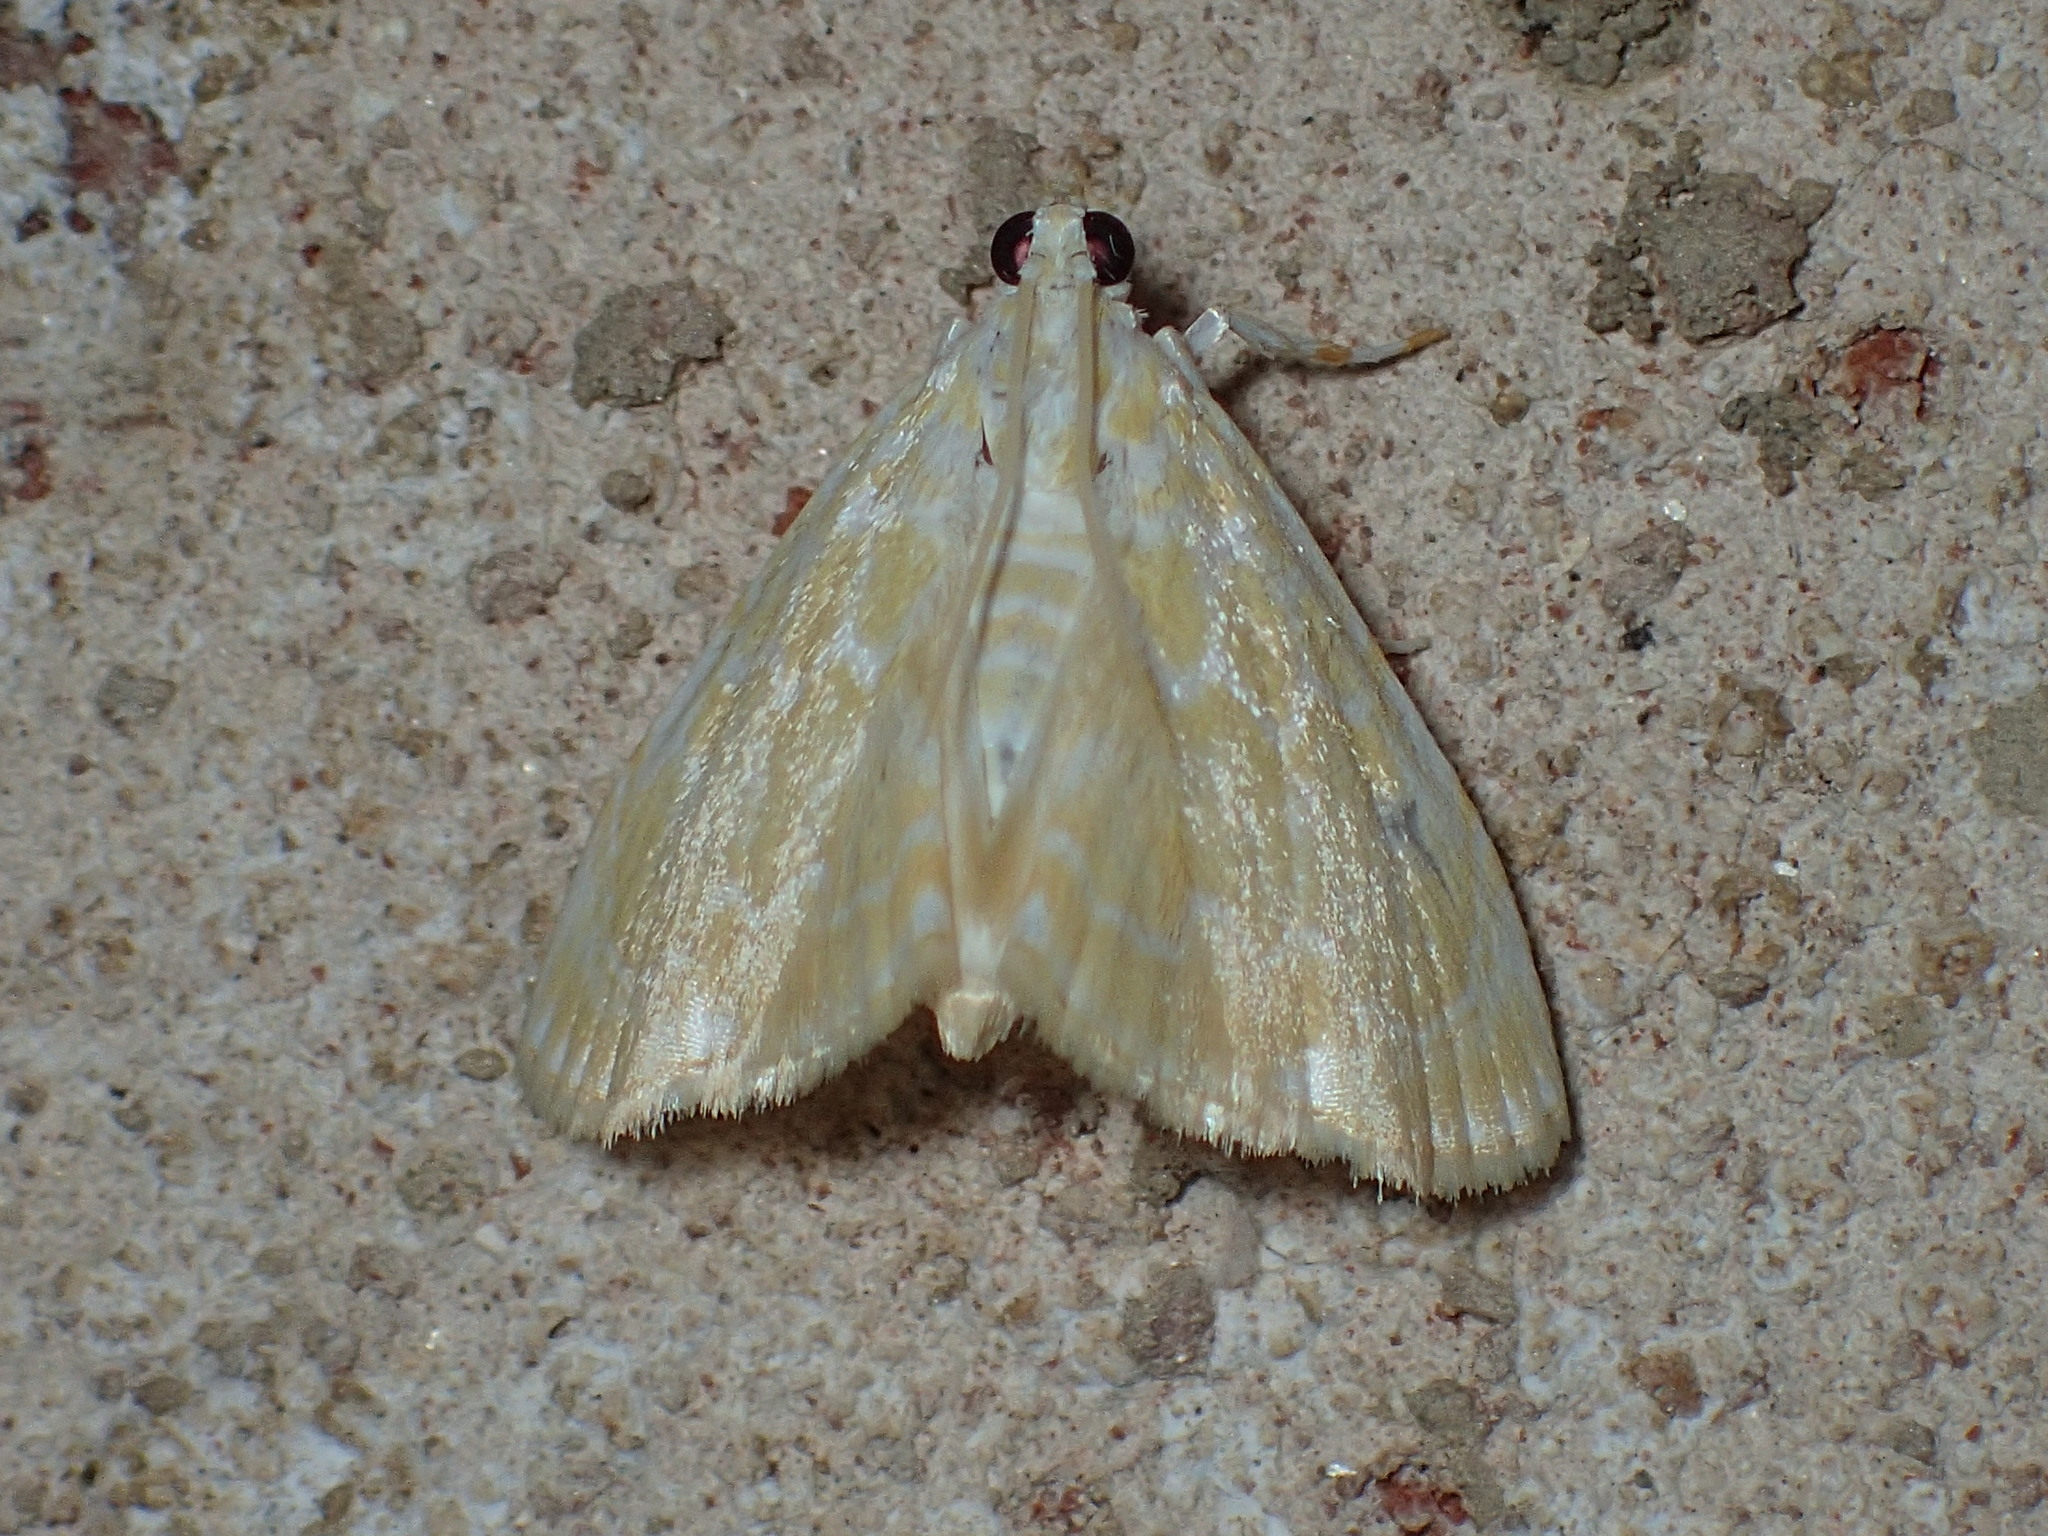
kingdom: Animalia
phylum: Arthropoda
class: Insecta
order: Lepidoptera
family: Crambidae
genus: Glaphyria
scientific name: Glaphyria glaphyralis
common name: Common glaphyria moth
